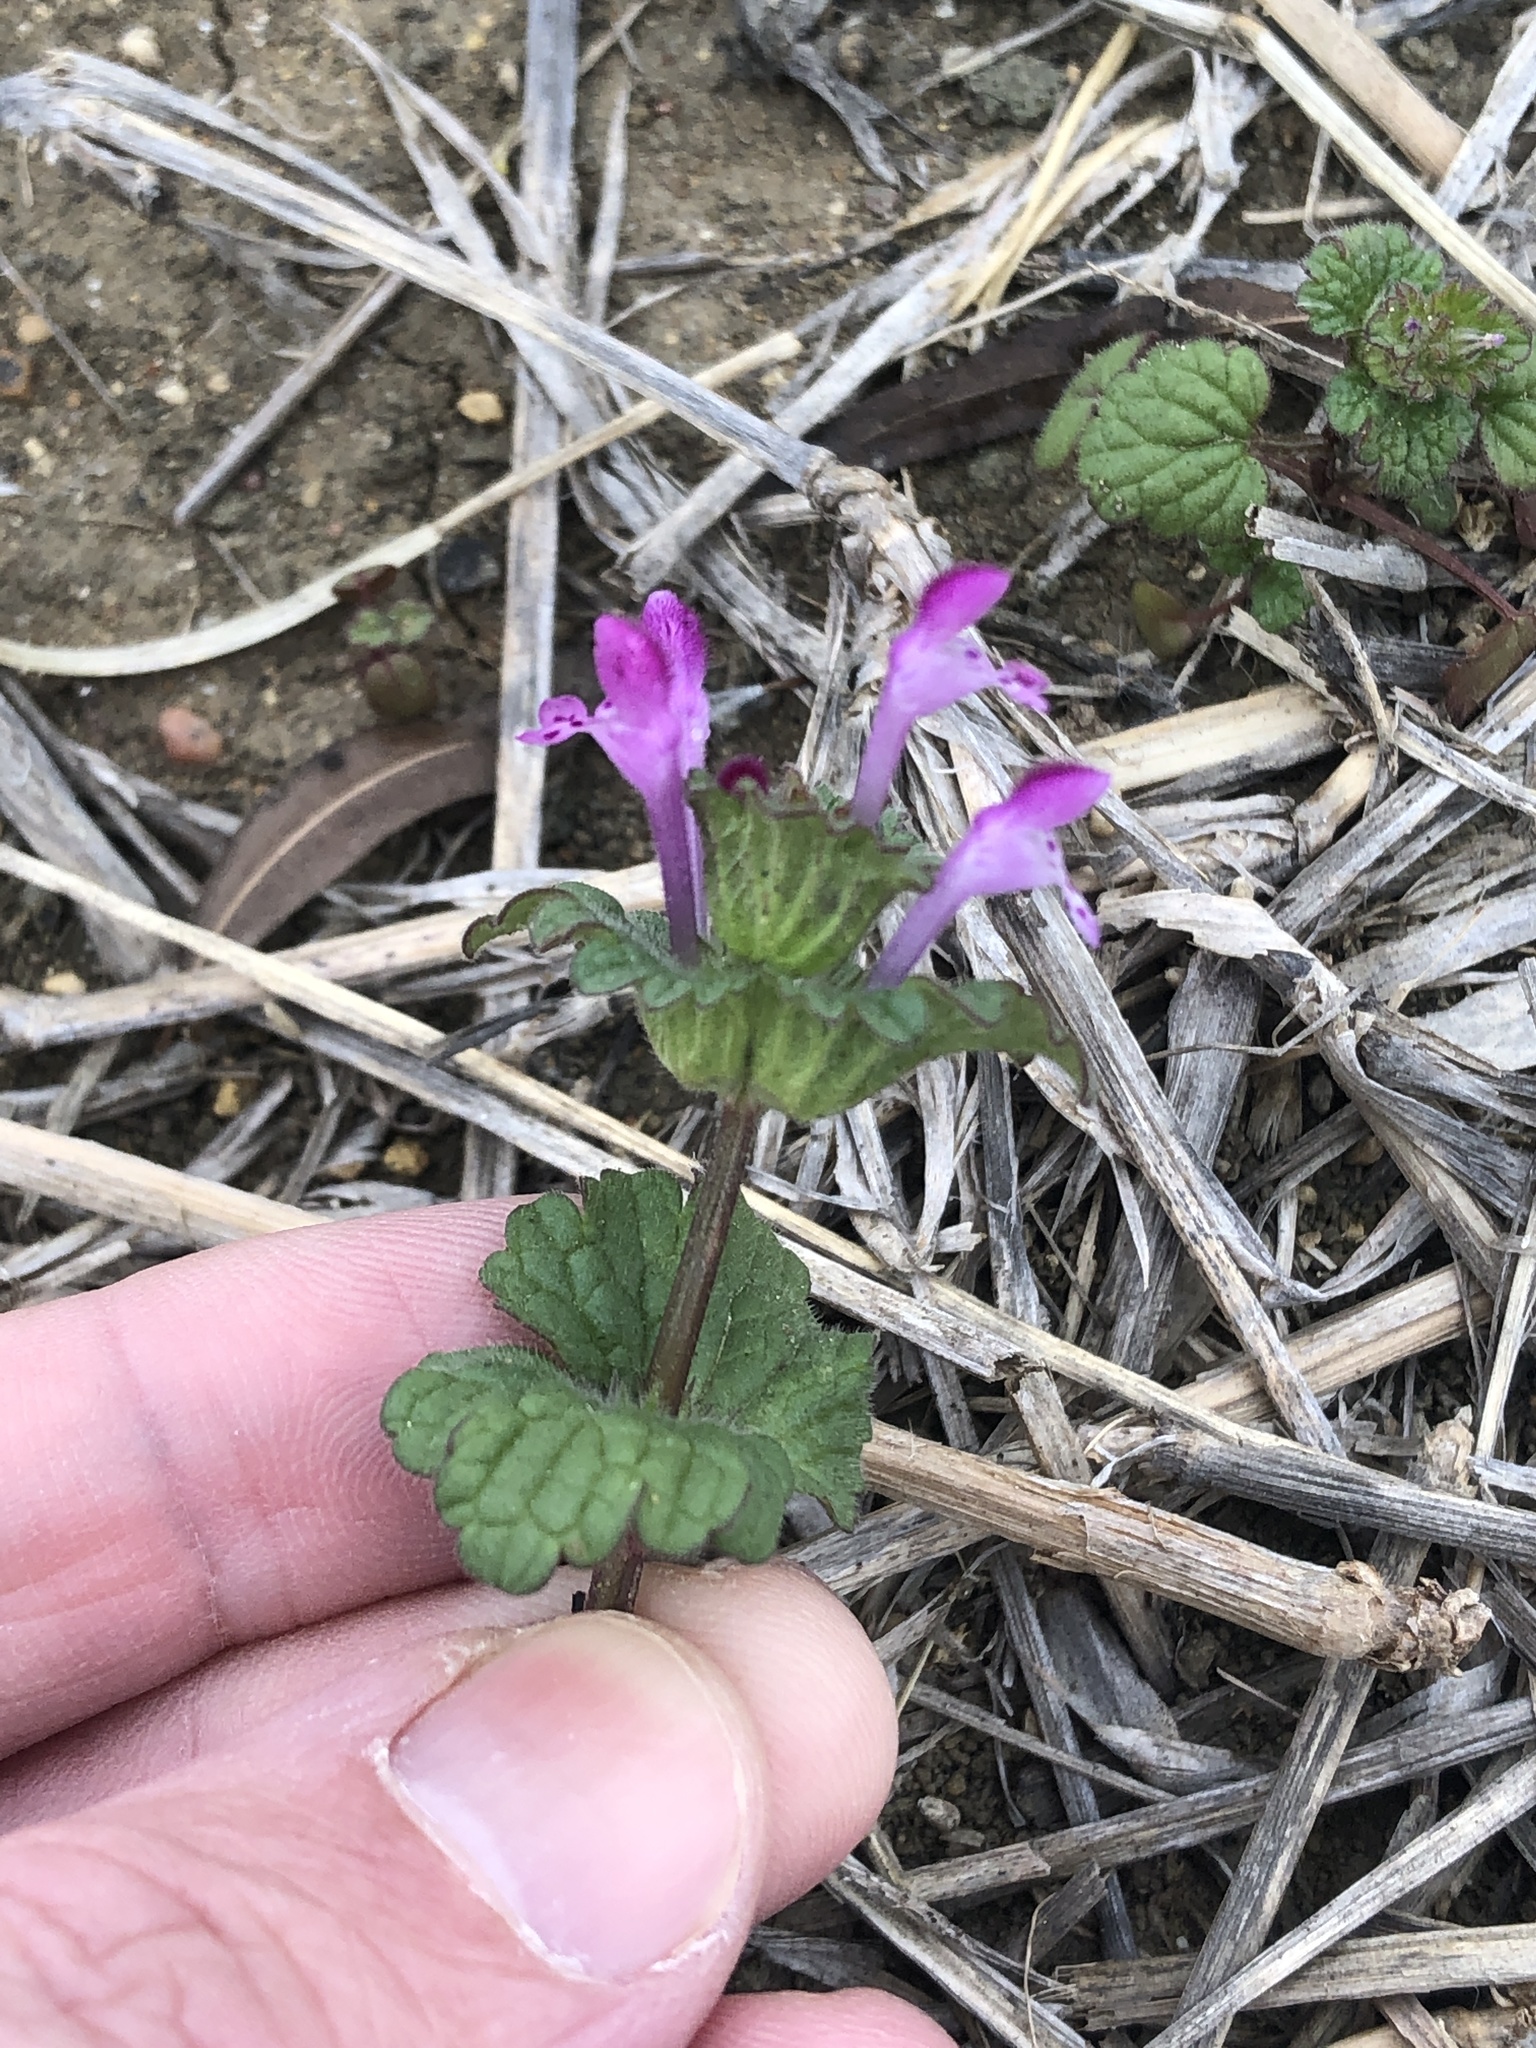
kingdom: Plantae
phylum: Tracheophyta
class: Magnoliopsida
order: Lamiales
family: Lamiaceae
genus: Lamium
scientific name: Lamium amplexicaule
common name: Henbit dead-nettle
